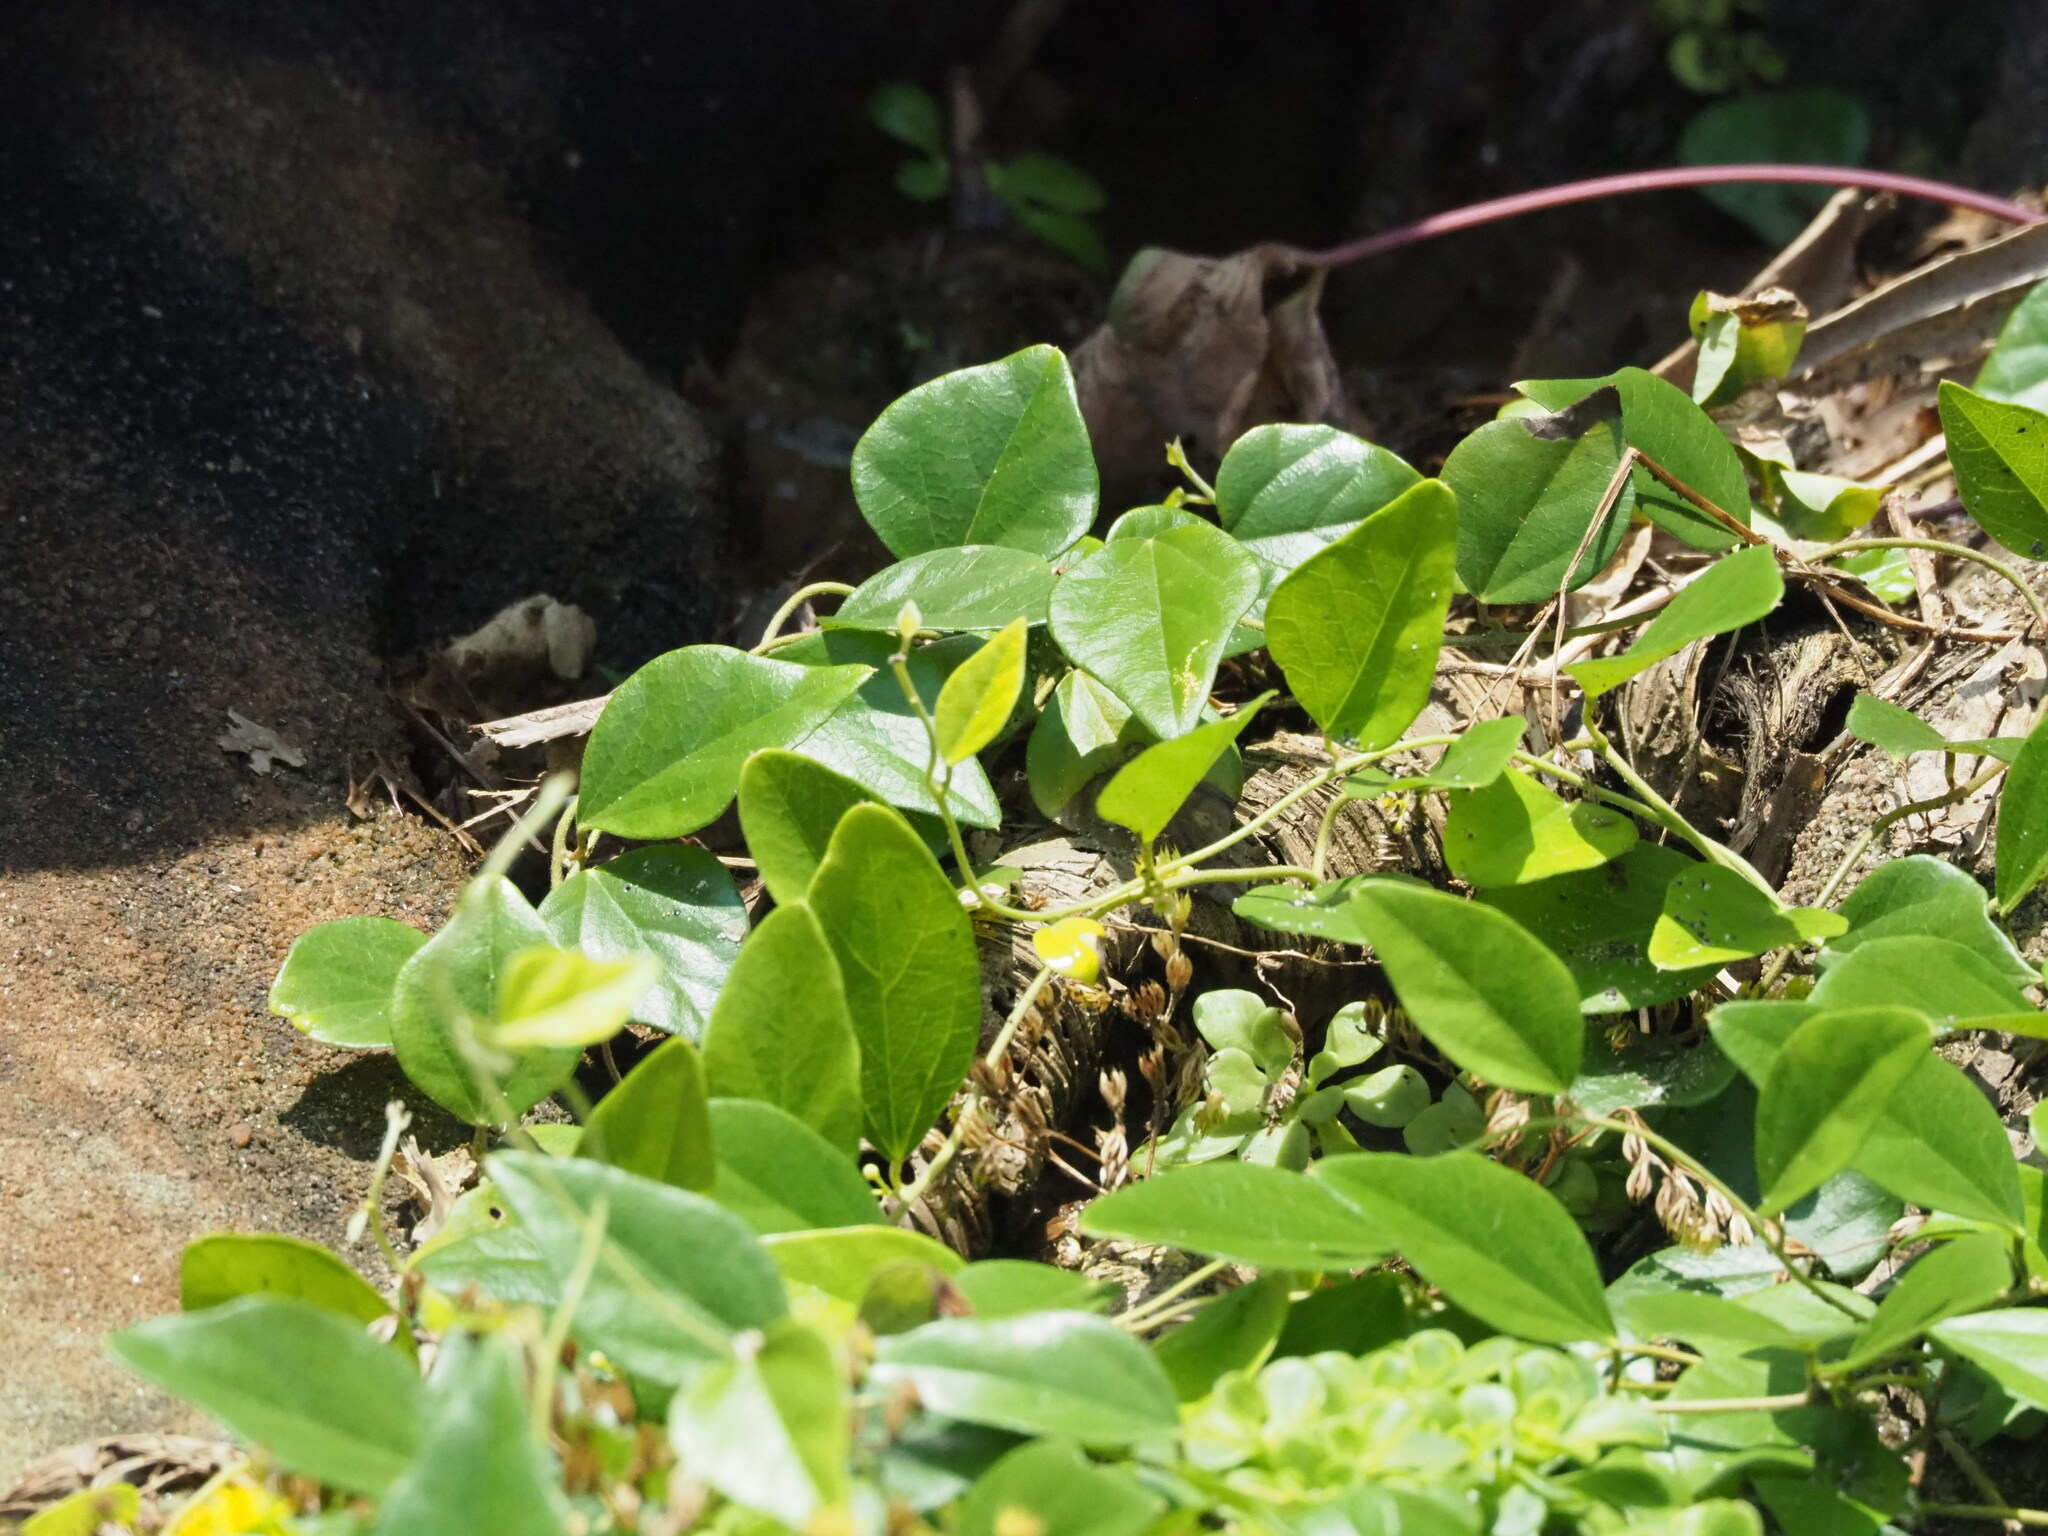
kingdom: Plantae
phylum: Tracheophyta
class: Magnoliopsida
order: Ranunculales
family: Menispermaceae
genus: Cocculus
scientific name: Cocculus orbiculatus
